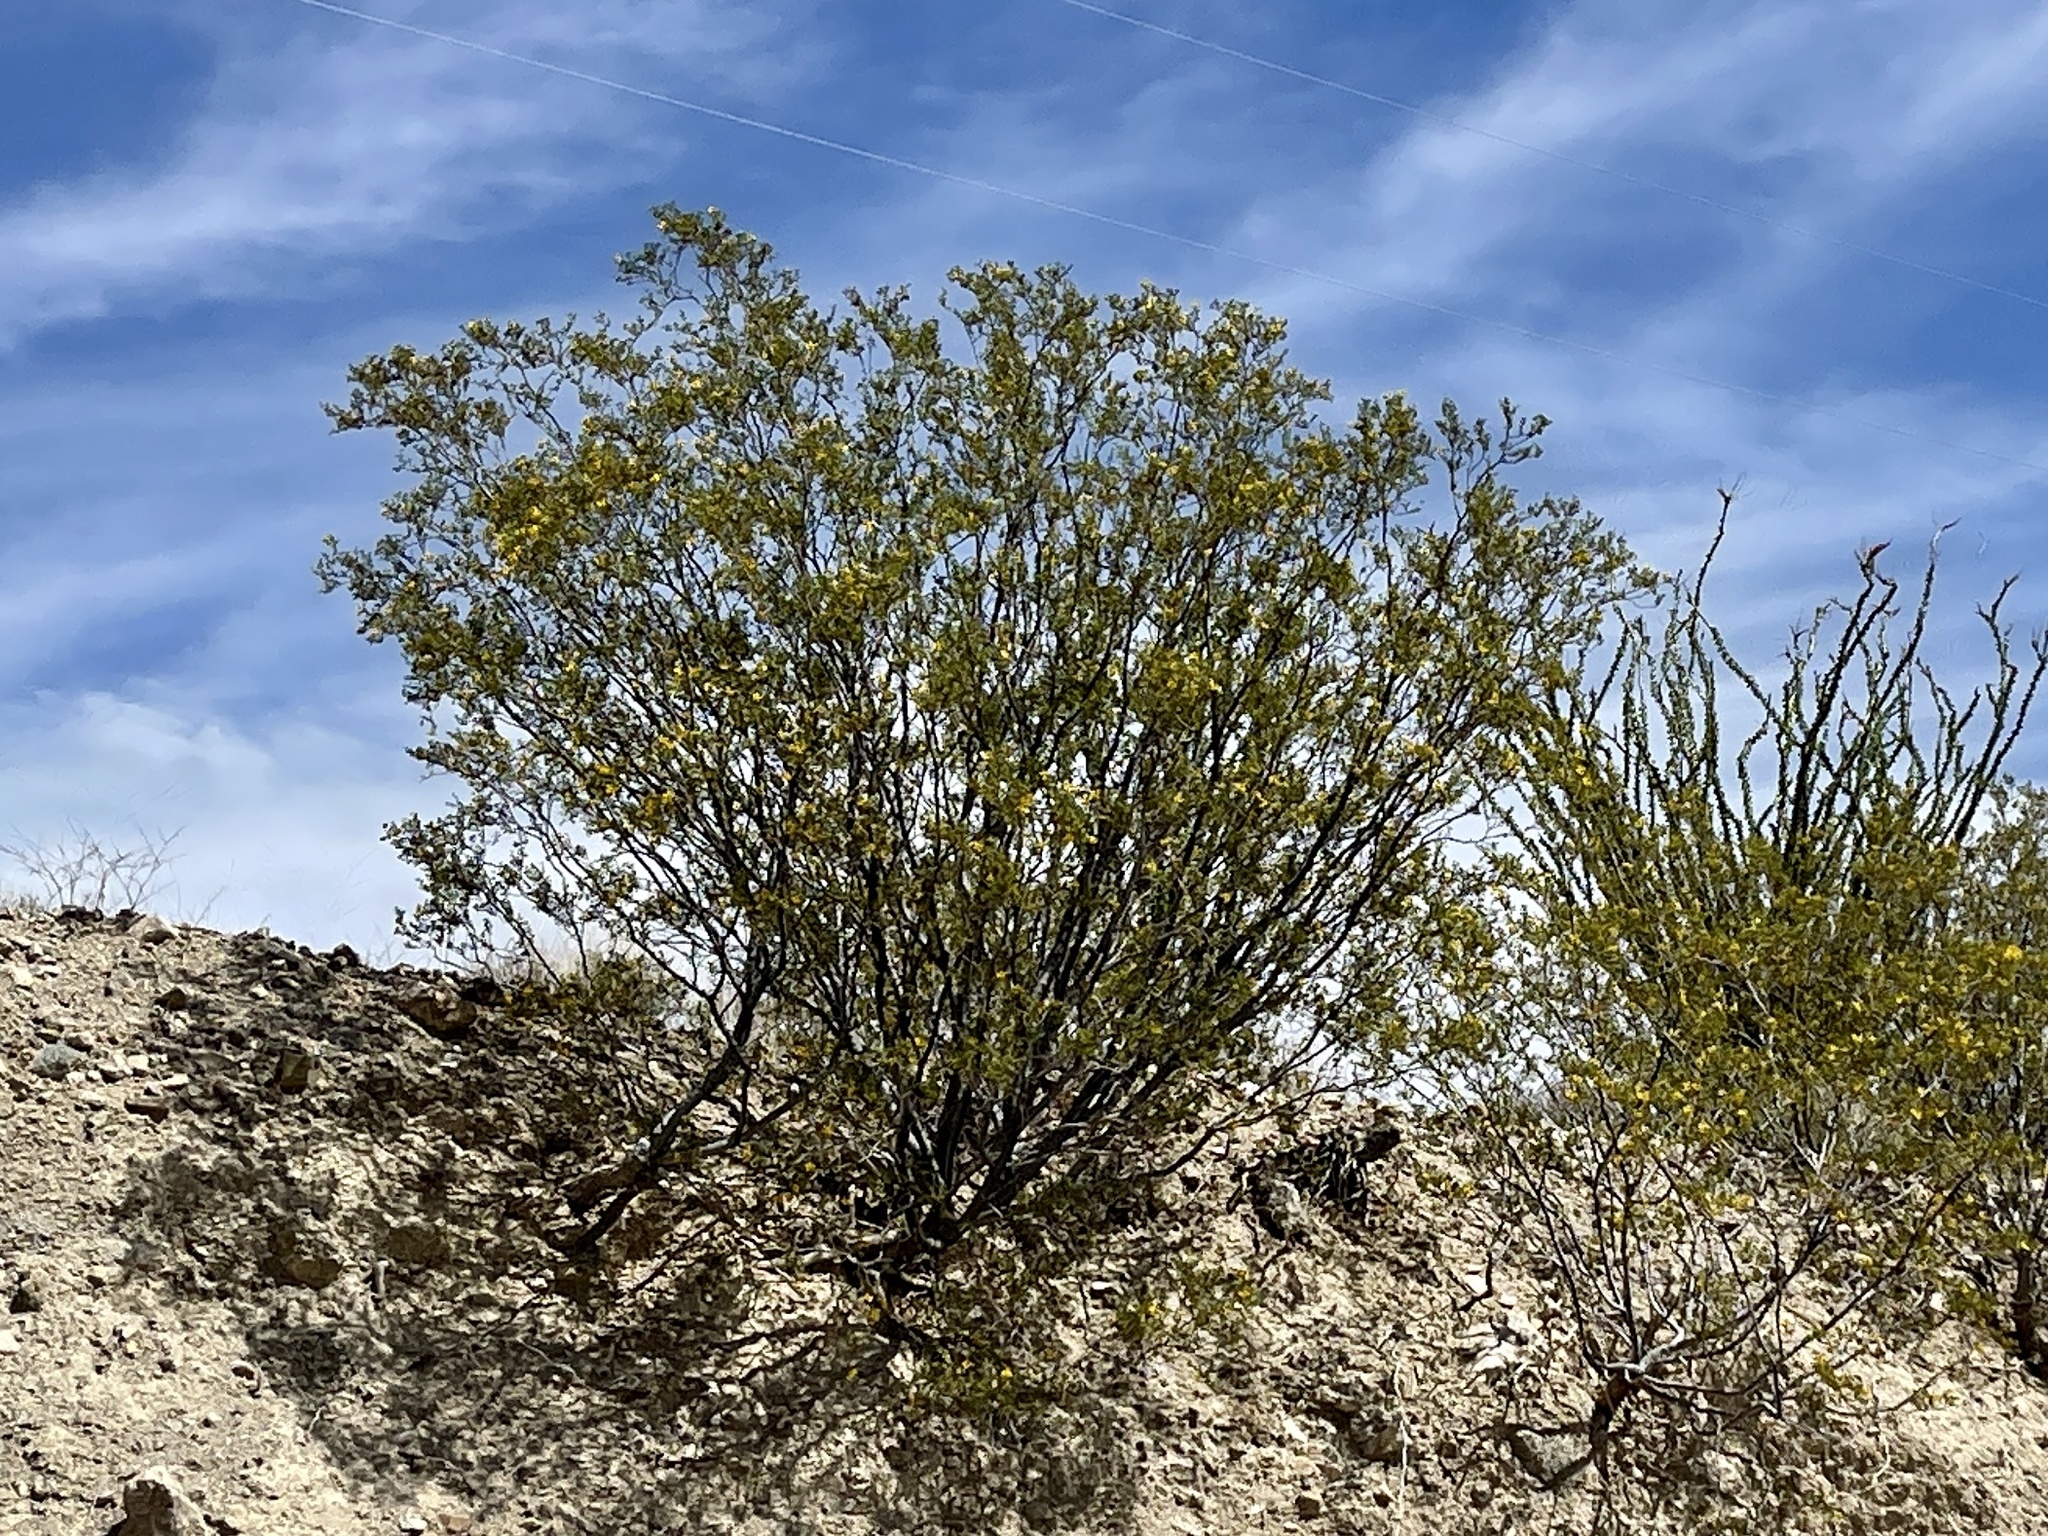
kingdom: Plantae
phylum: Tracheophyta
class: Magnoliopsida
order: Zygophyllales
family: Zygophyllaceae
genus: Larrea
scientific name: Larrea tridentata
